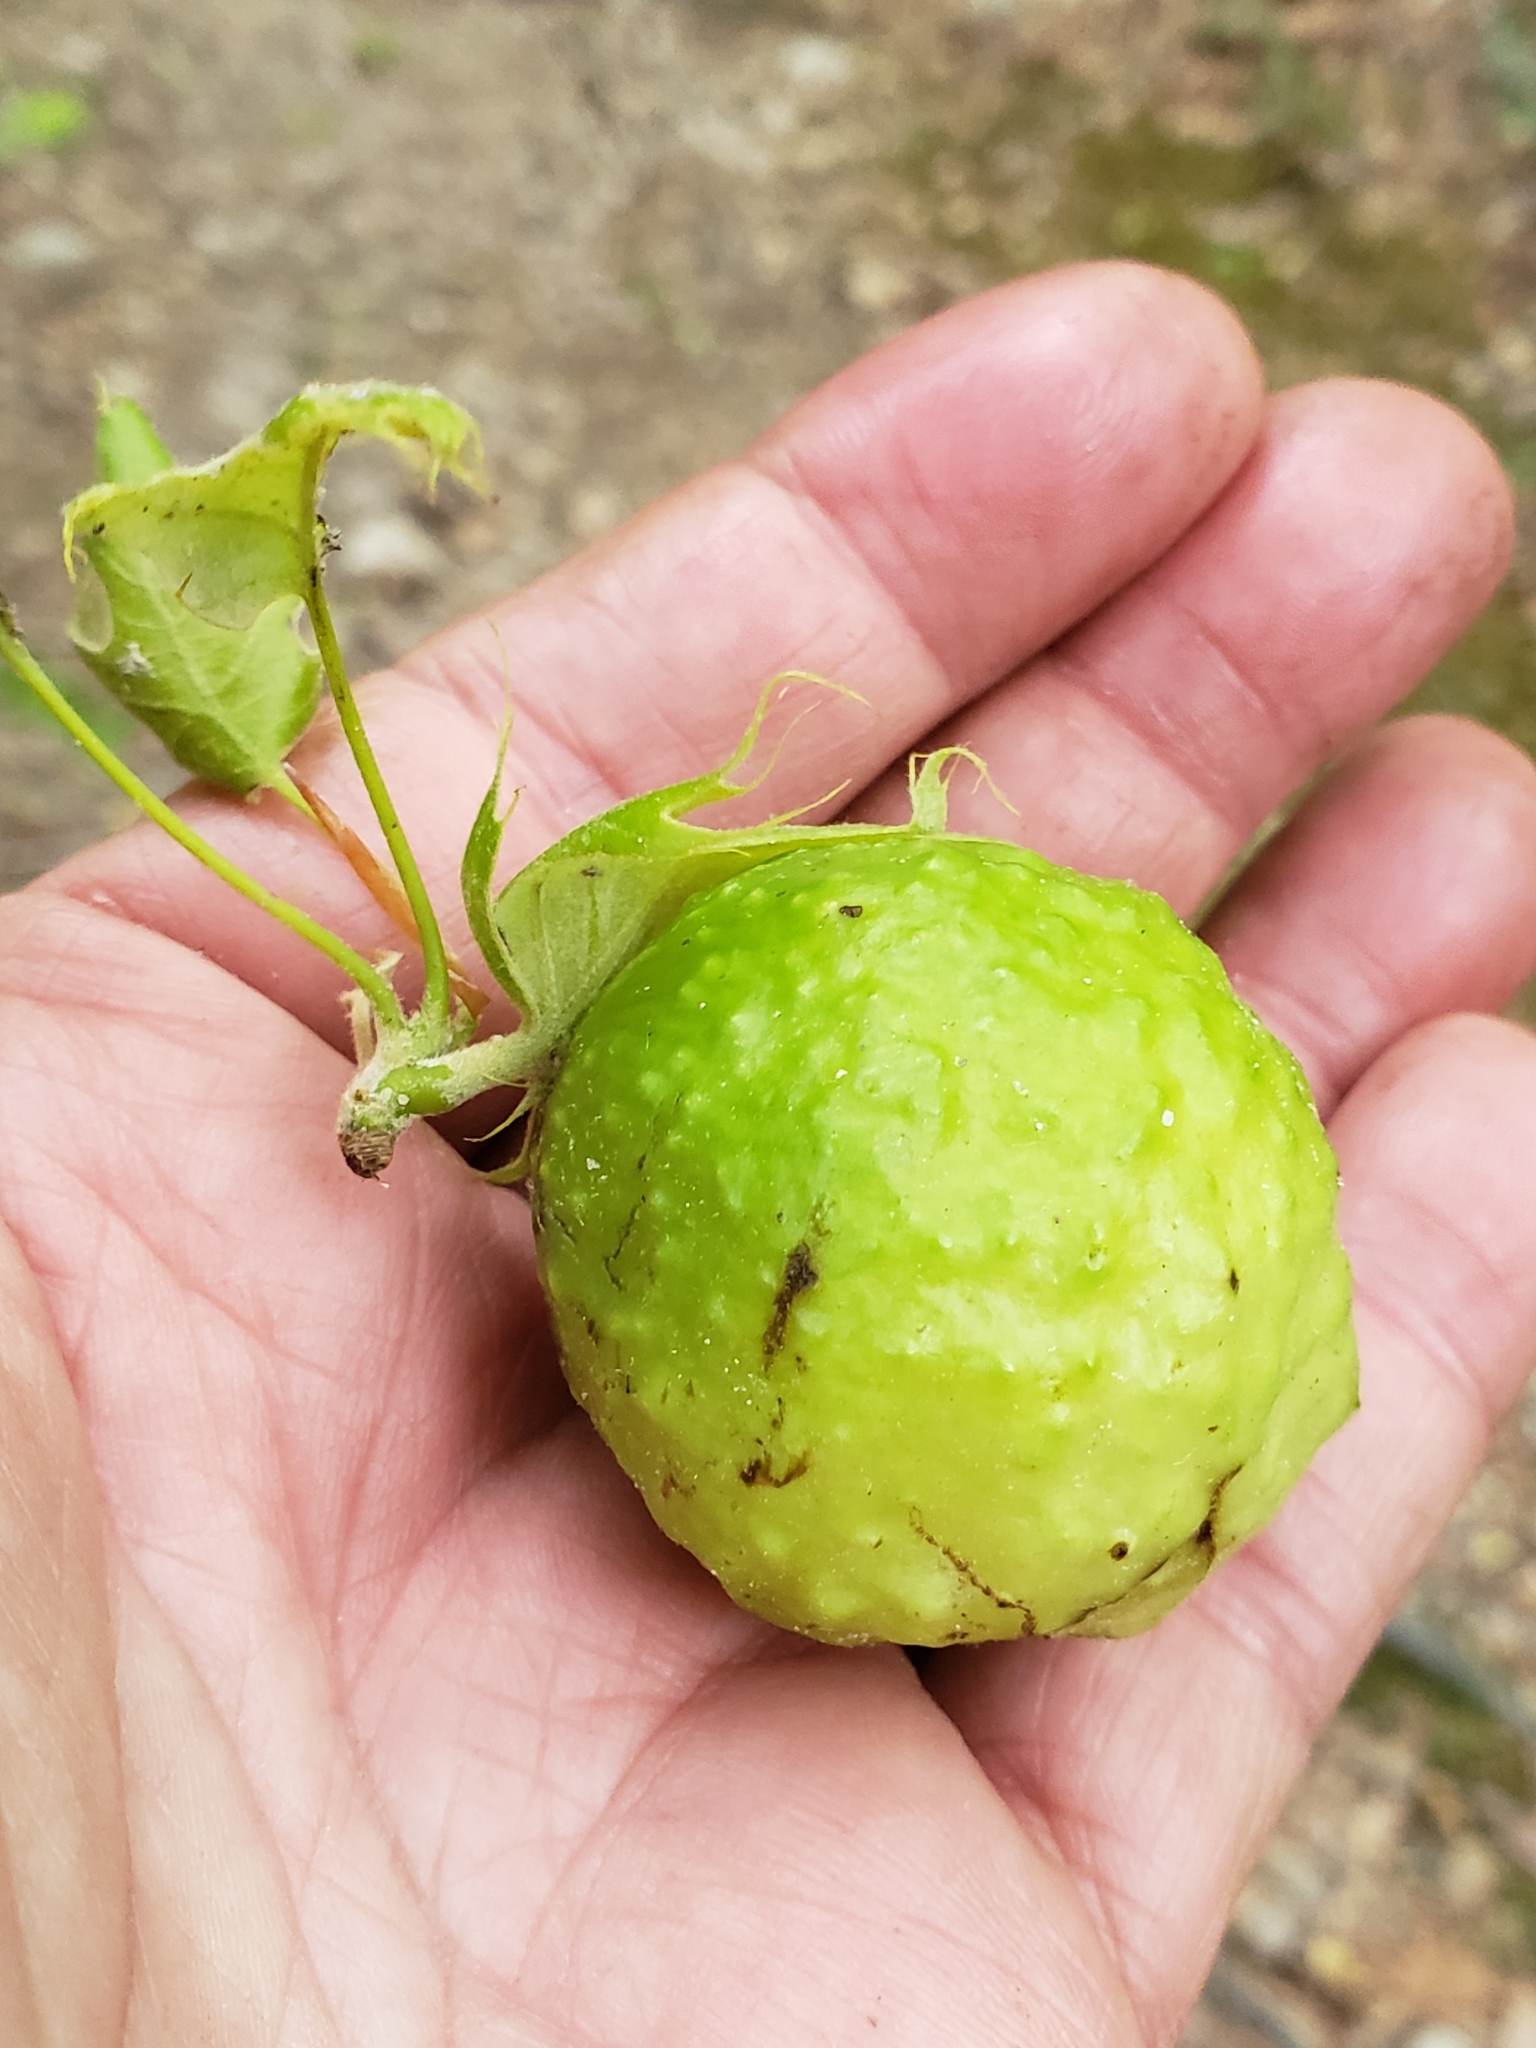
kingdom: Animalia
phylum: Arthropoda
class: Insecta
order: Hymenoptera
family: Cynipidae
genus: Amphibolips
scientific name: Amphibolips
